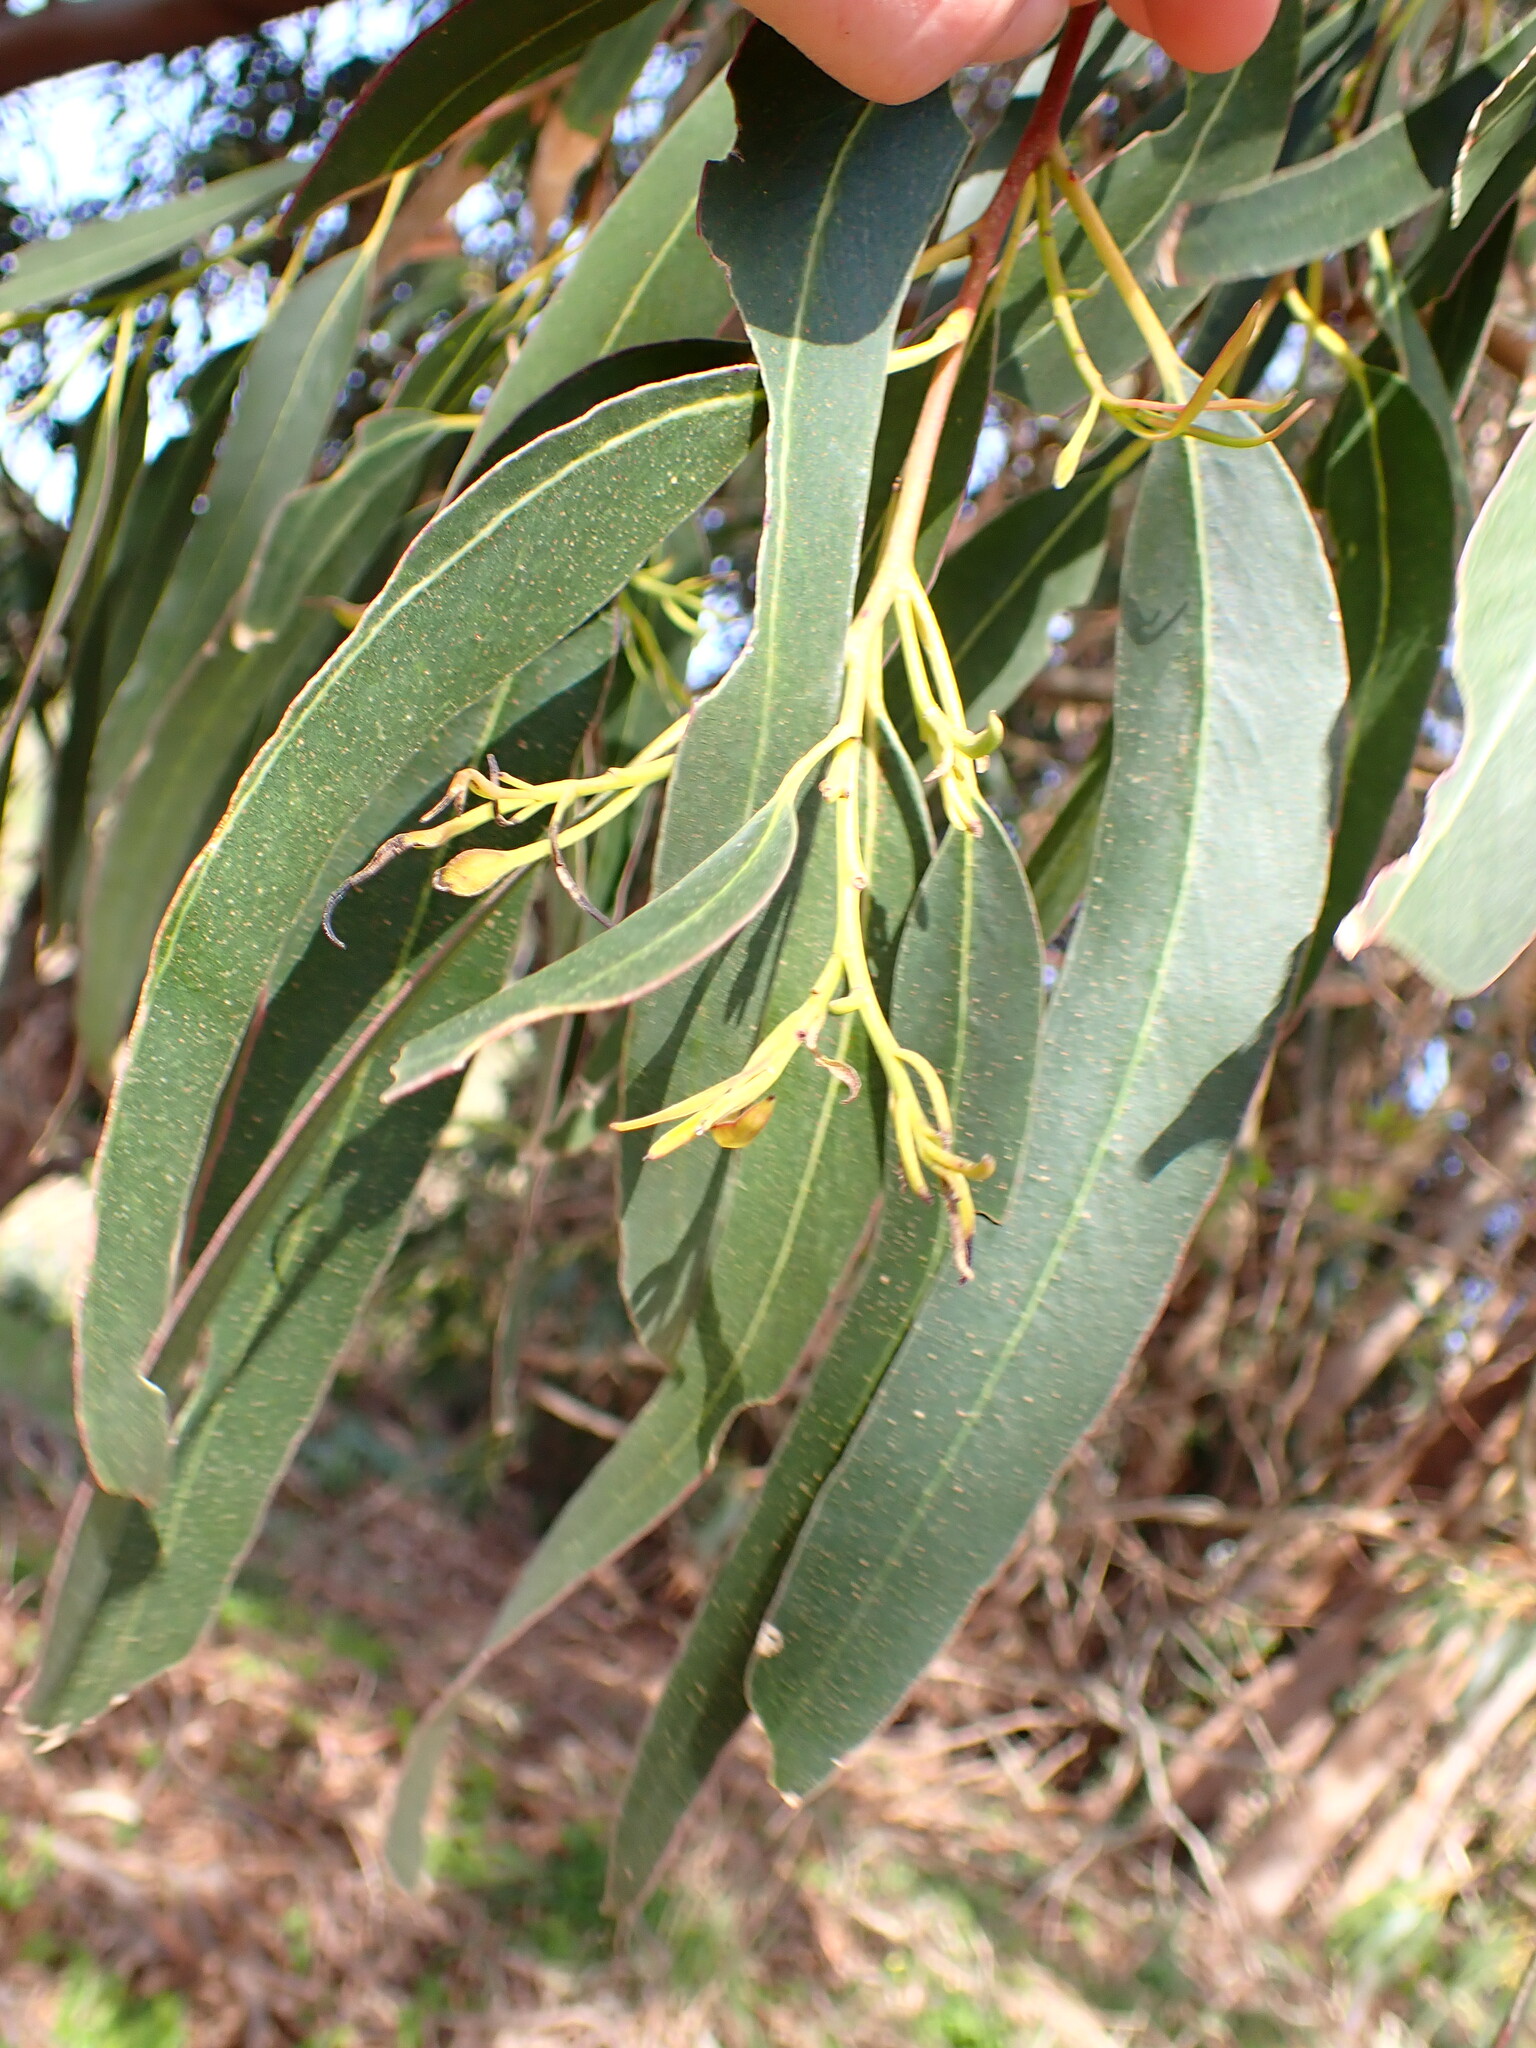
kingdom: Plantae
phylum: Tracheophyta
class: Magnoliopsida
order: Myrtales
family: Myrtaceae
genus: Eucalyptus
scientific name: Eucalyptus globulus
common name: Southern blue-gum
